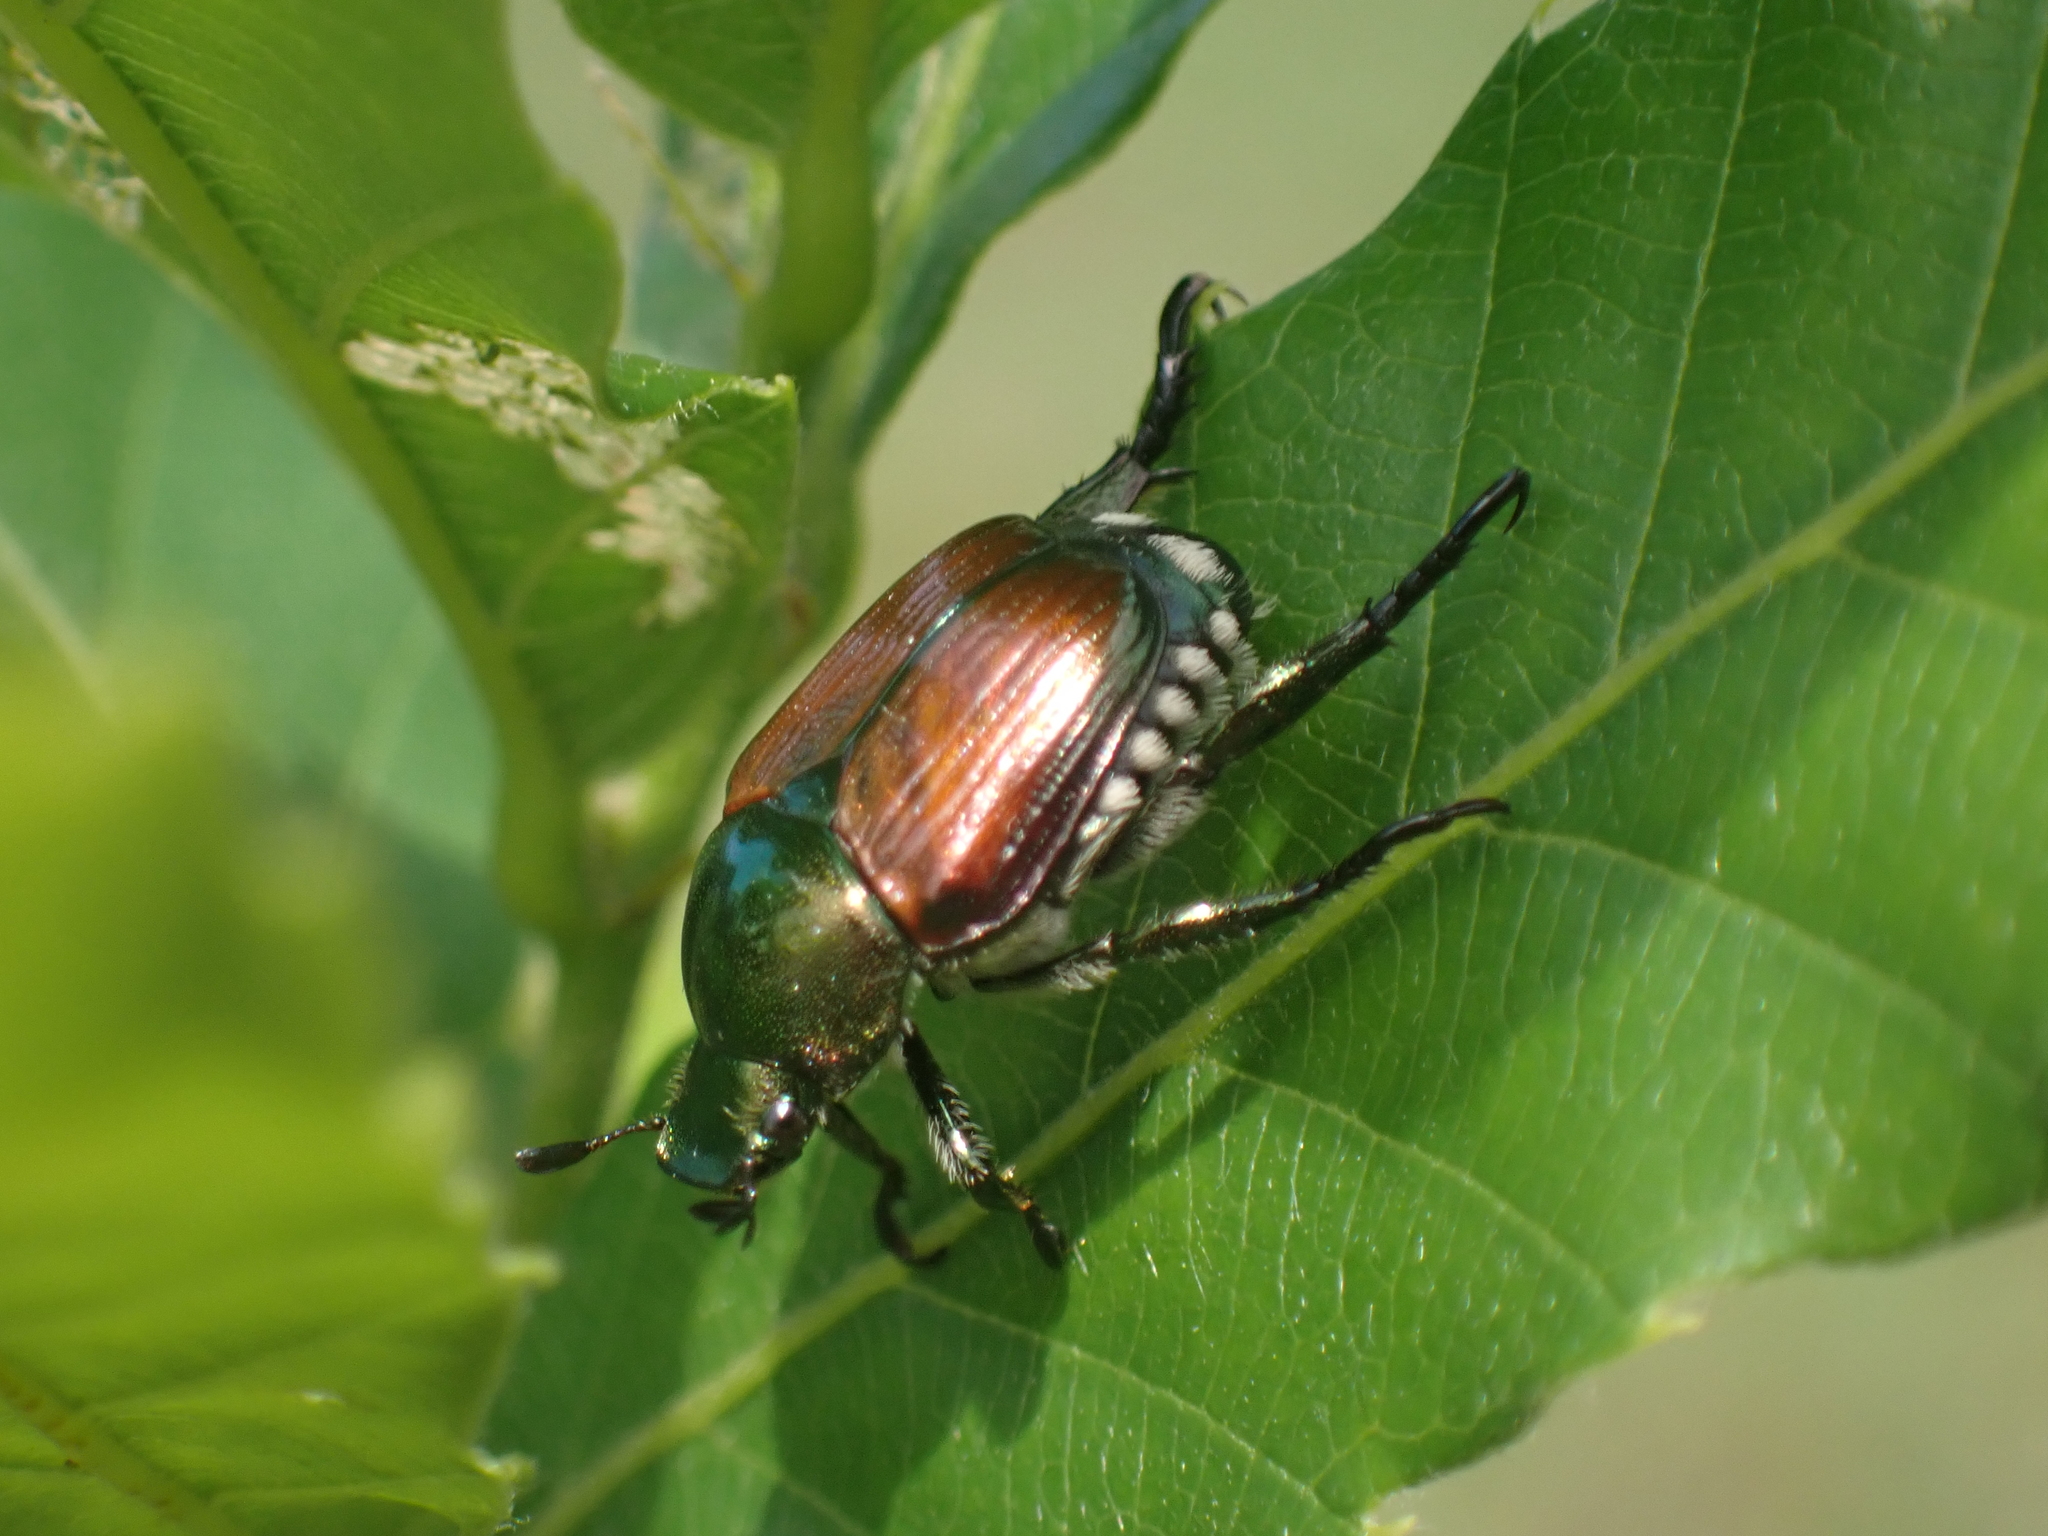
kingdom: Animalia
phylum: Arthropoda
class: Insecta
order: Coleoptera
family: Scarabaeidae
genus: Popillia
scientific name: Popillia japonica
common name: Japanese beetle
